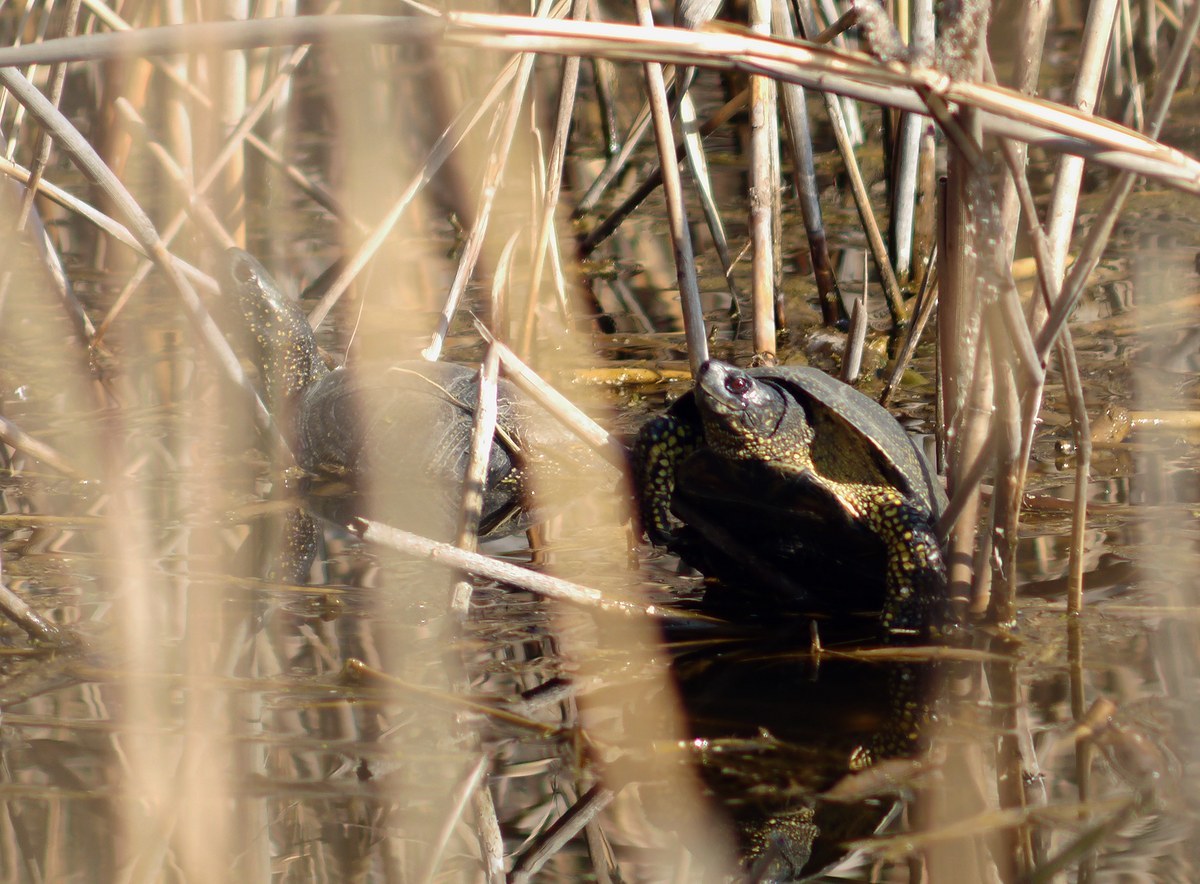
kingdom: Animalia
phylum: Chordata
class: Testudines
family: Emydidae
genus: Emys
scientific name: Emys orbicularis
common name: European pond turtle
